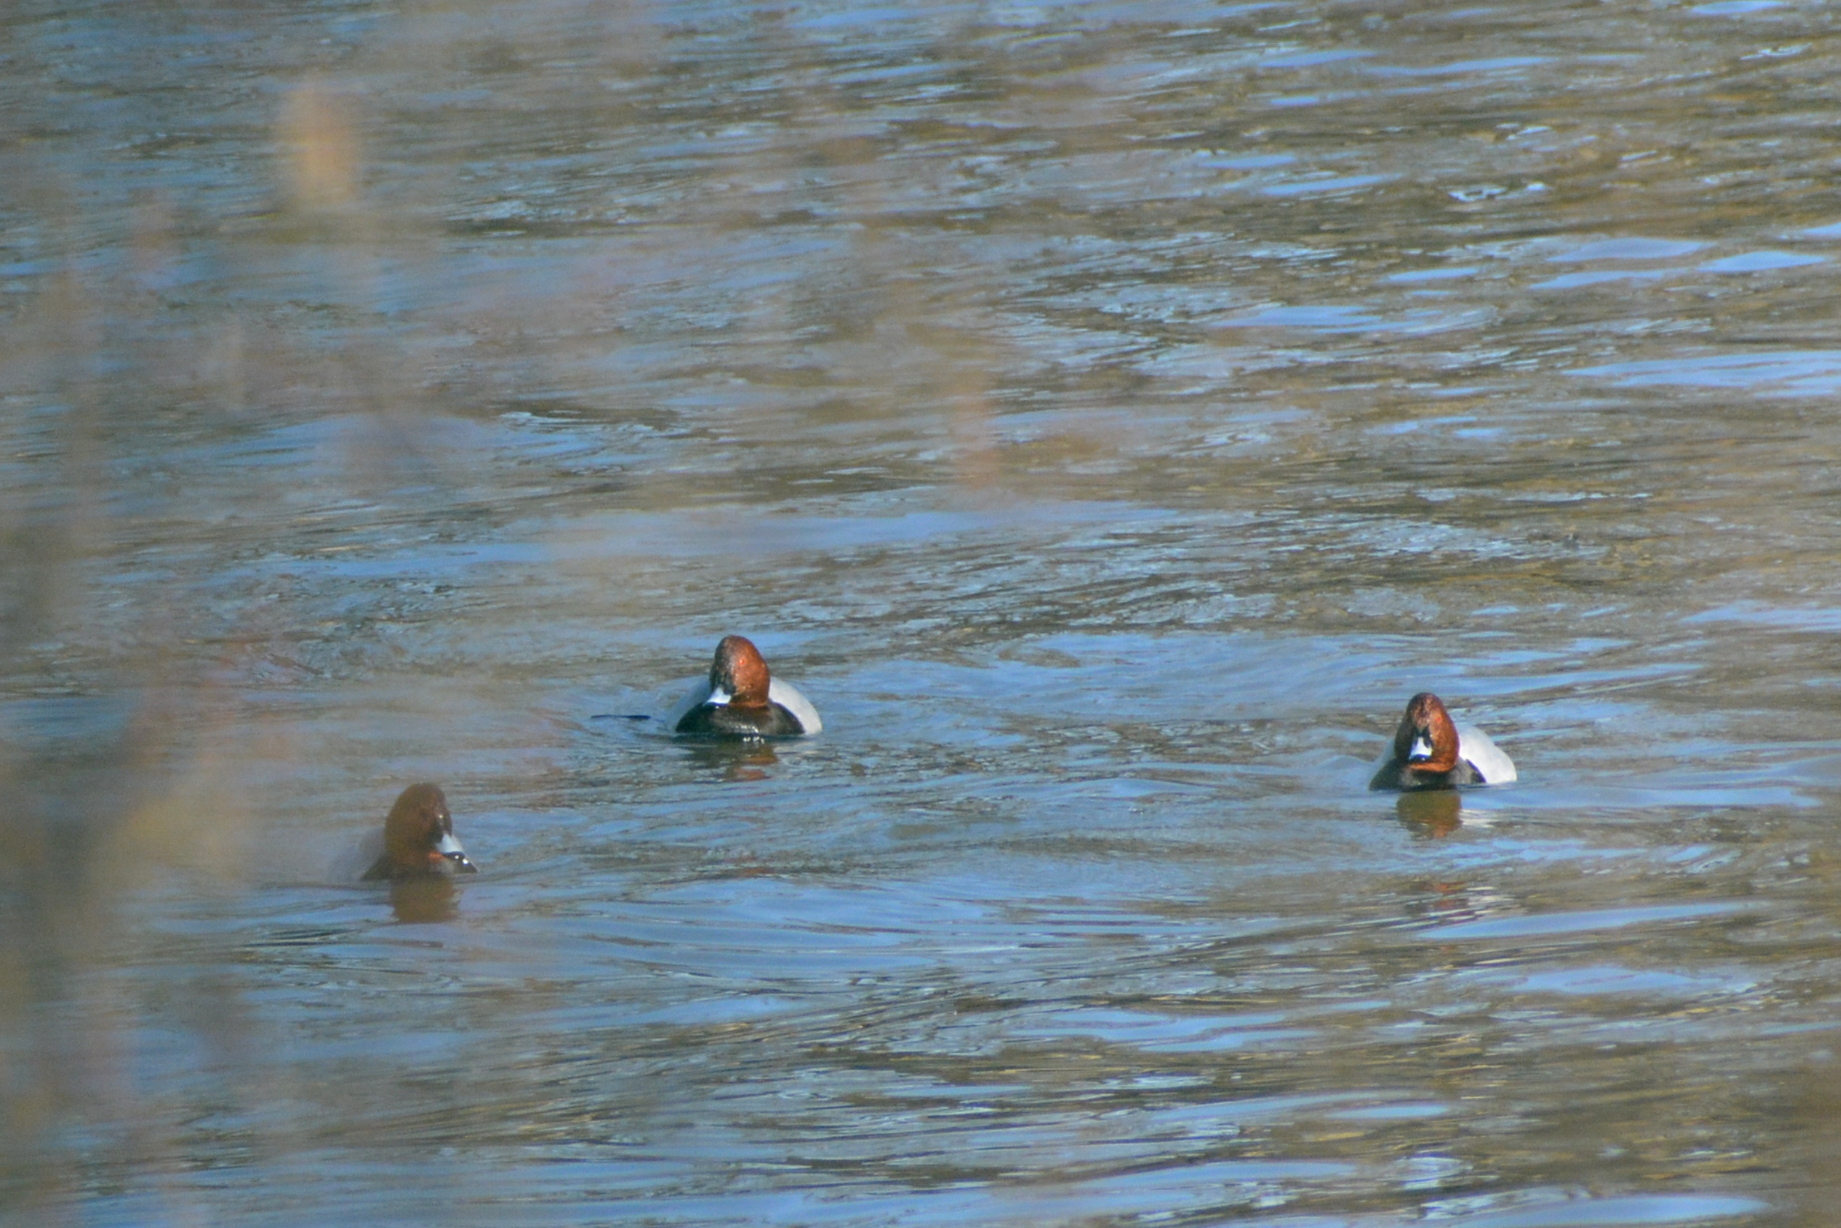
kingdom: Animalia
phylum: Chordata
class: Aves
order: Anseriformes
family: Anatidae
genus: Aythya
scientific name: Aythya ferina
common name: Common pochard
